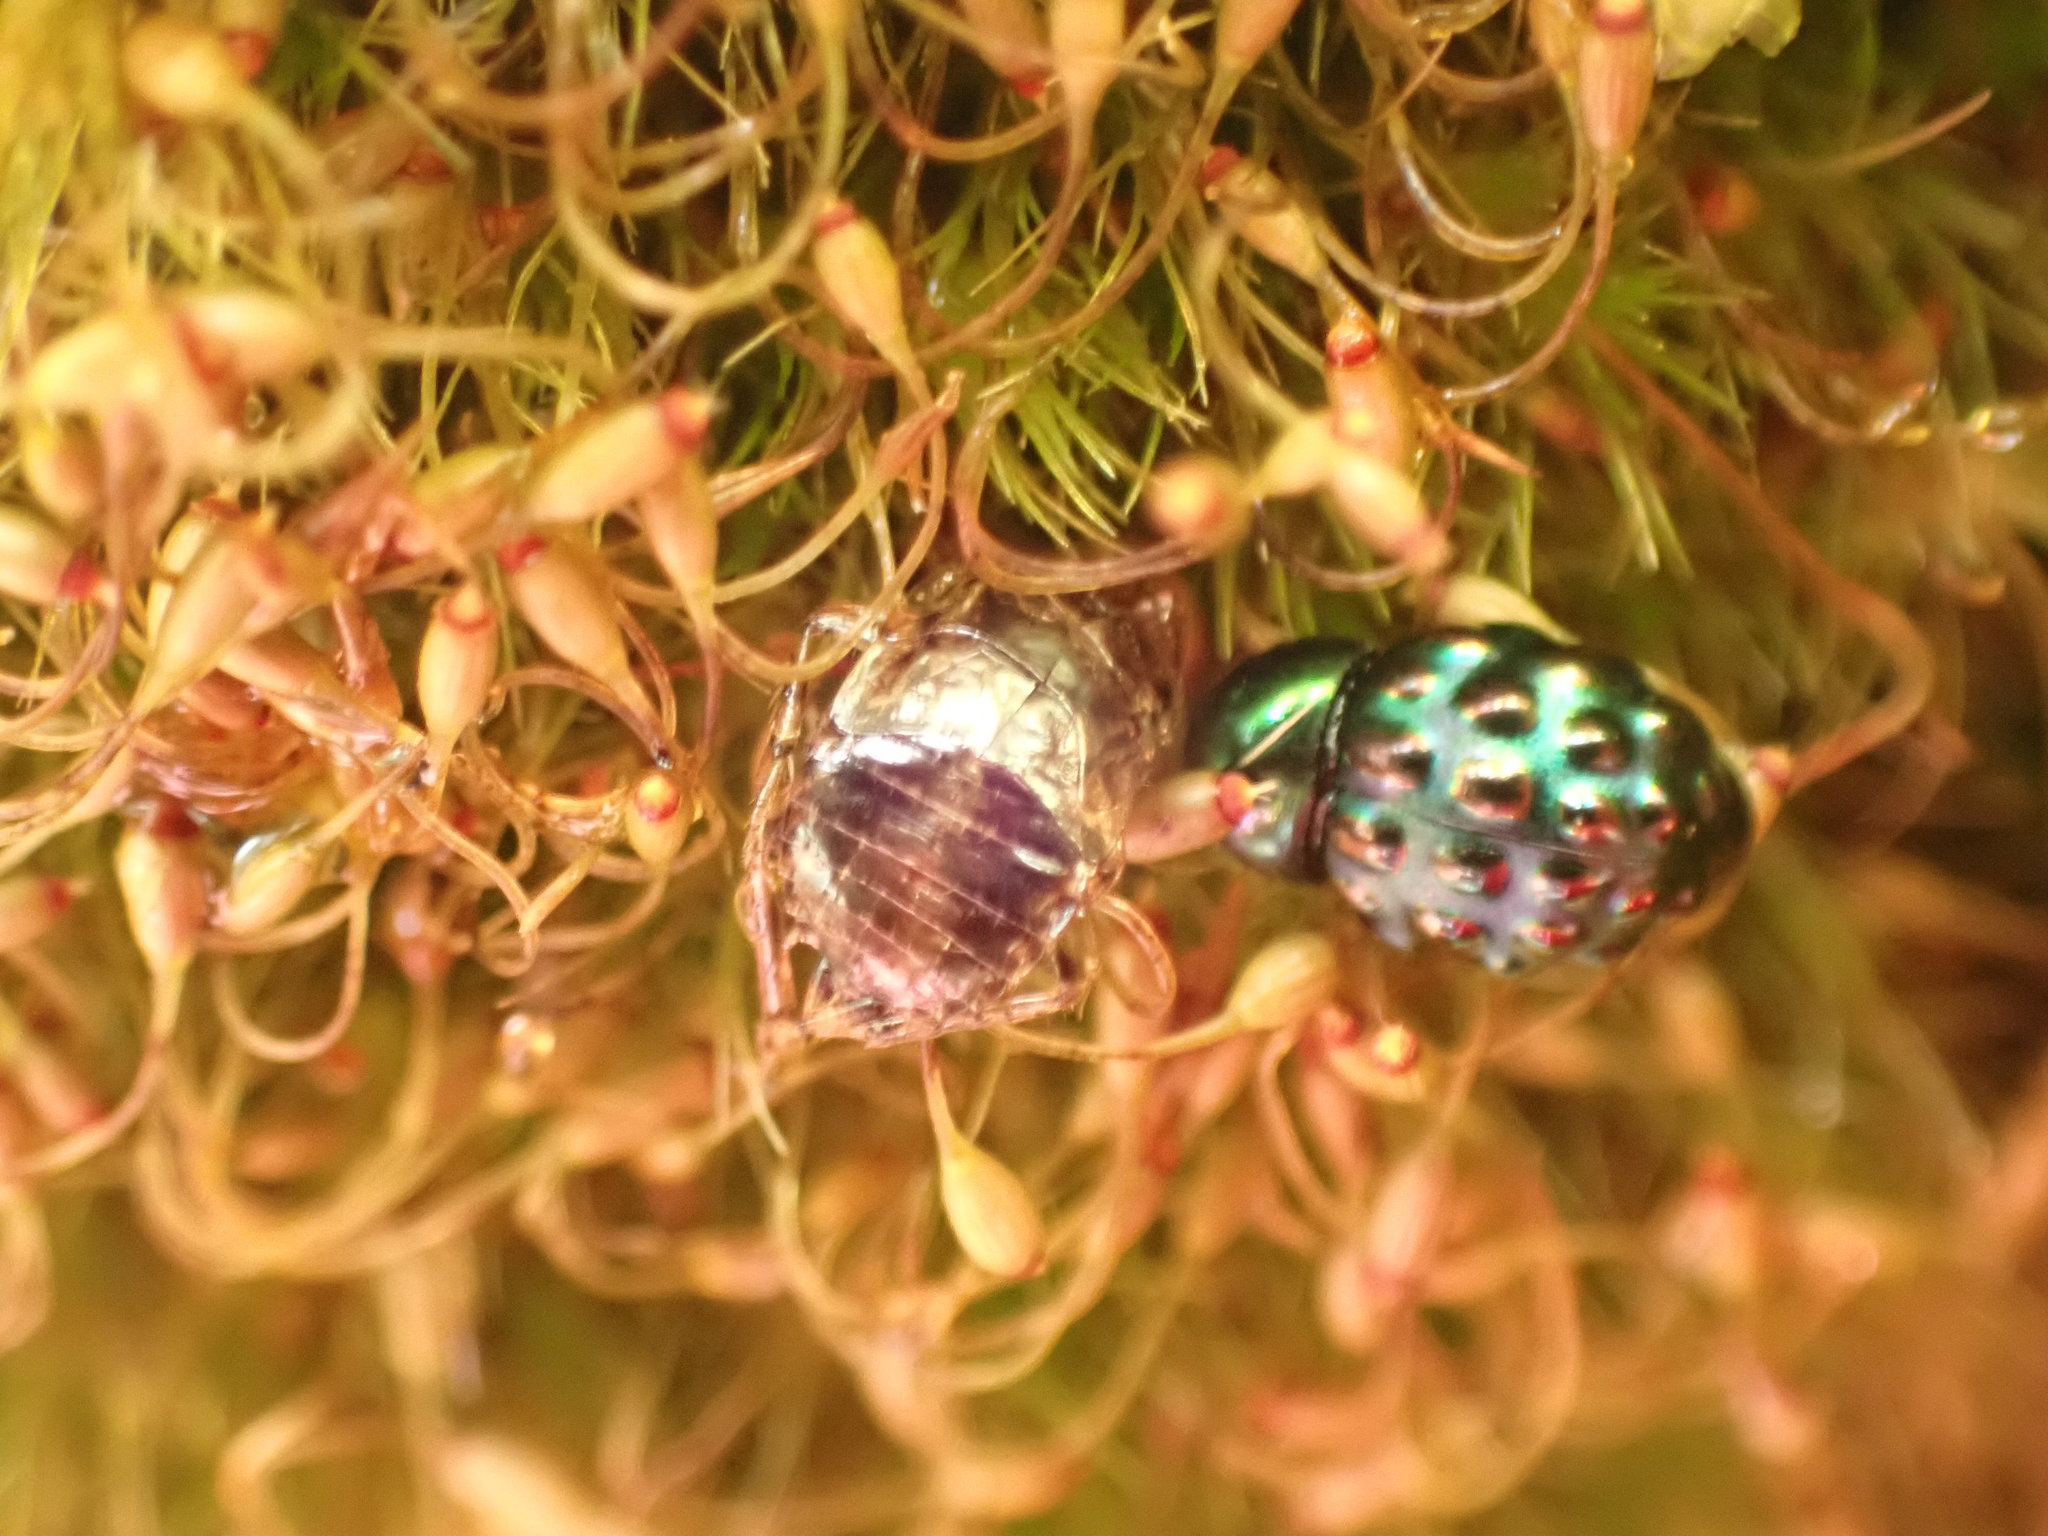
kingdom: Animalia
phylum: Arthropoda
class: Insecta
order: Coleoptera
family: Byrrhidae
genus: Notolioon
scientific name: Notolioon
